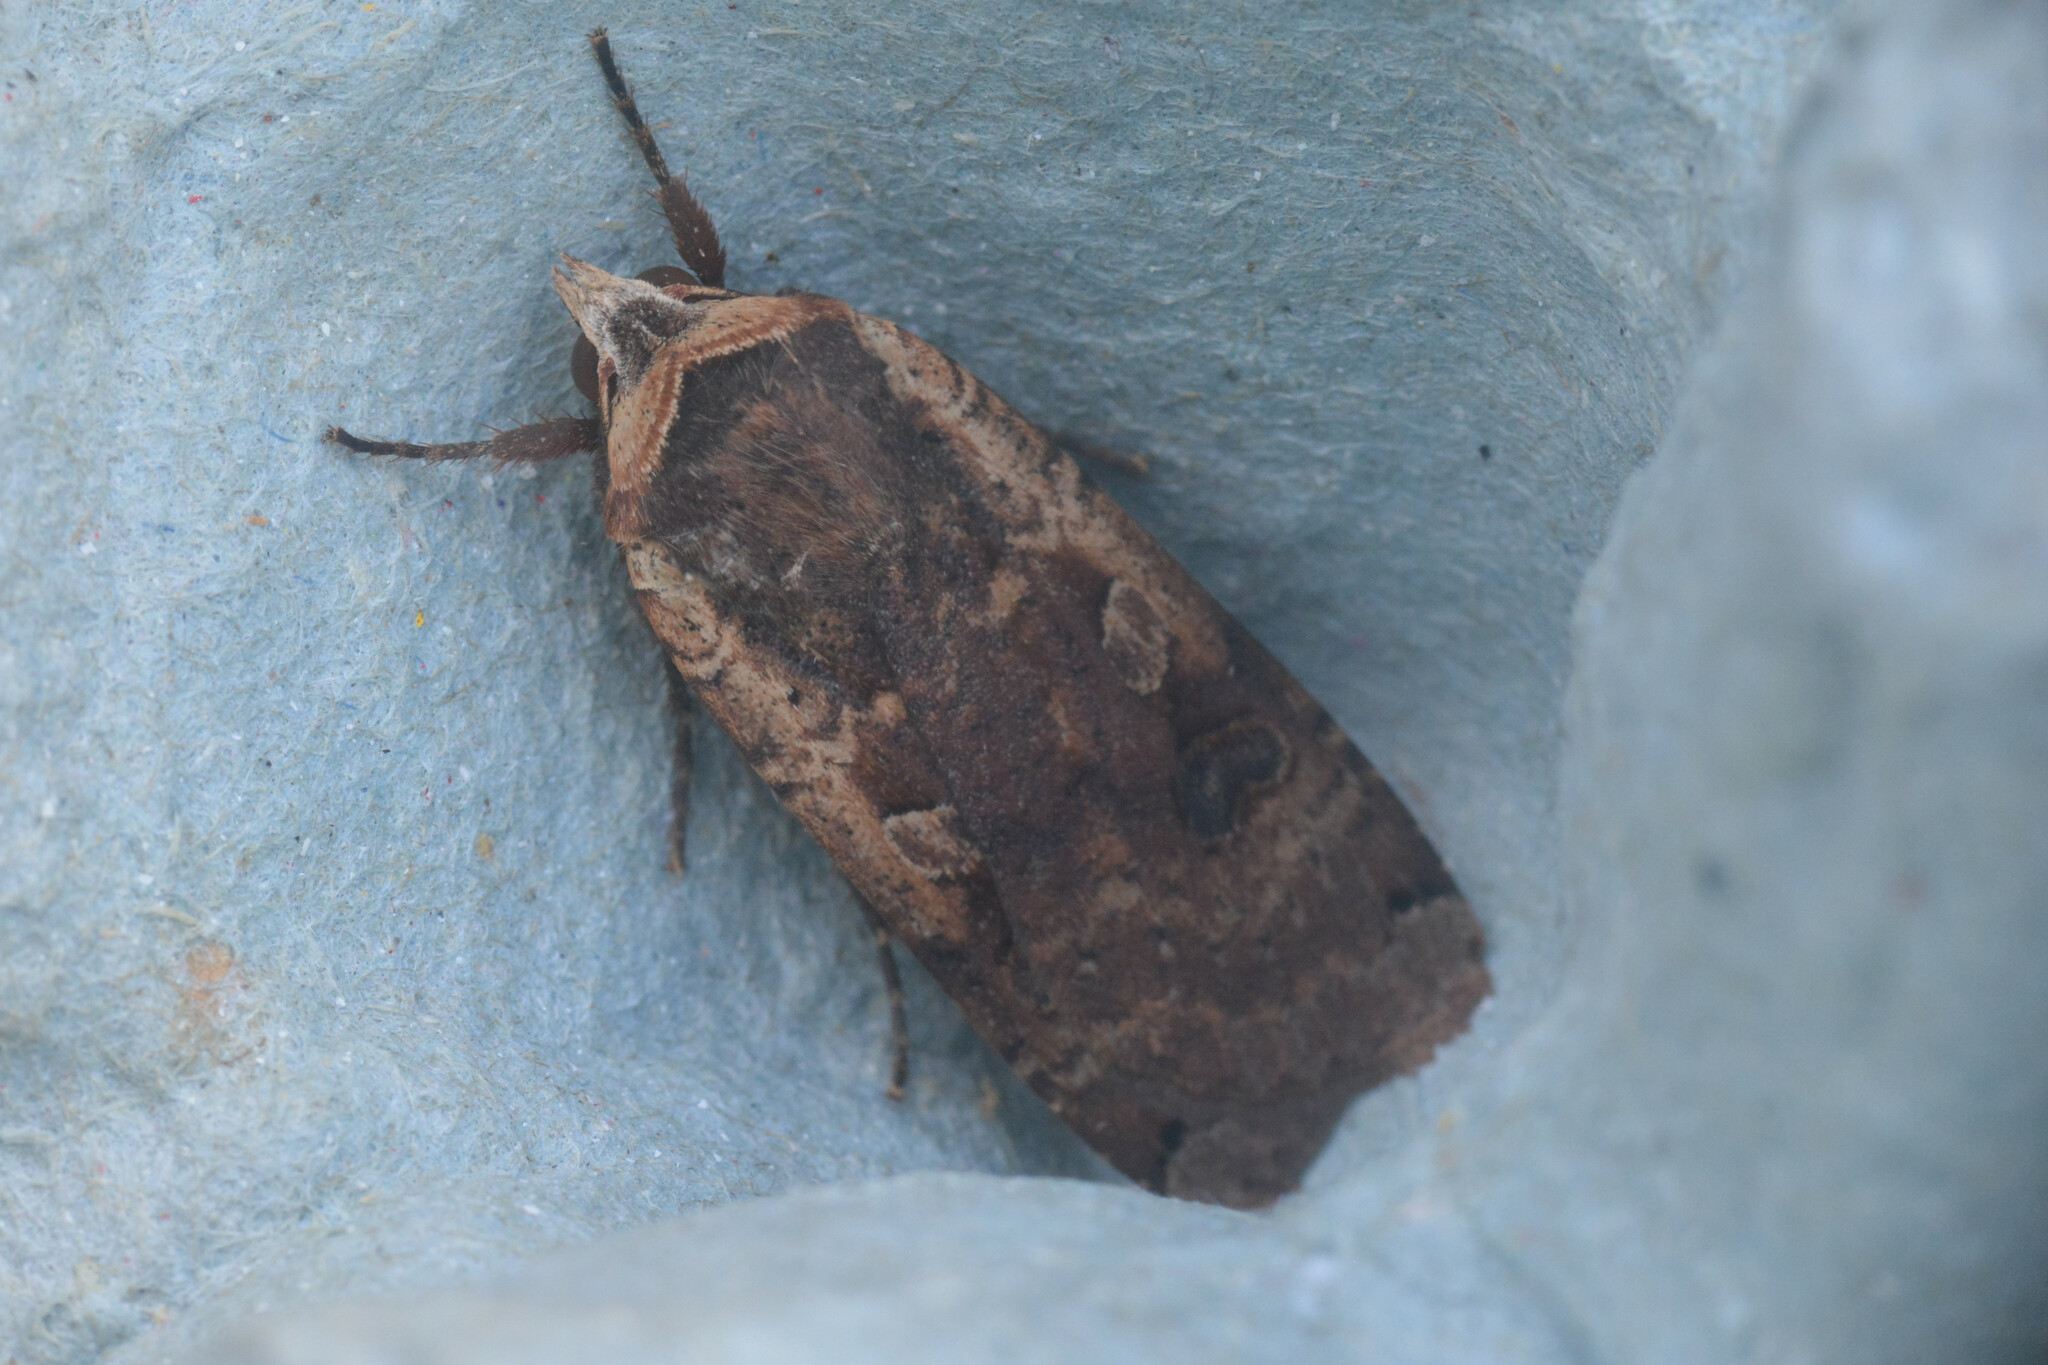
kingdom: Animalia
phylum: Arthropoda
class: Insecta
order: Lepidoptera
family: Noctuidae
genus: Noctua
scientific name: Noctua pronuba
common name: Large yellow underwing
